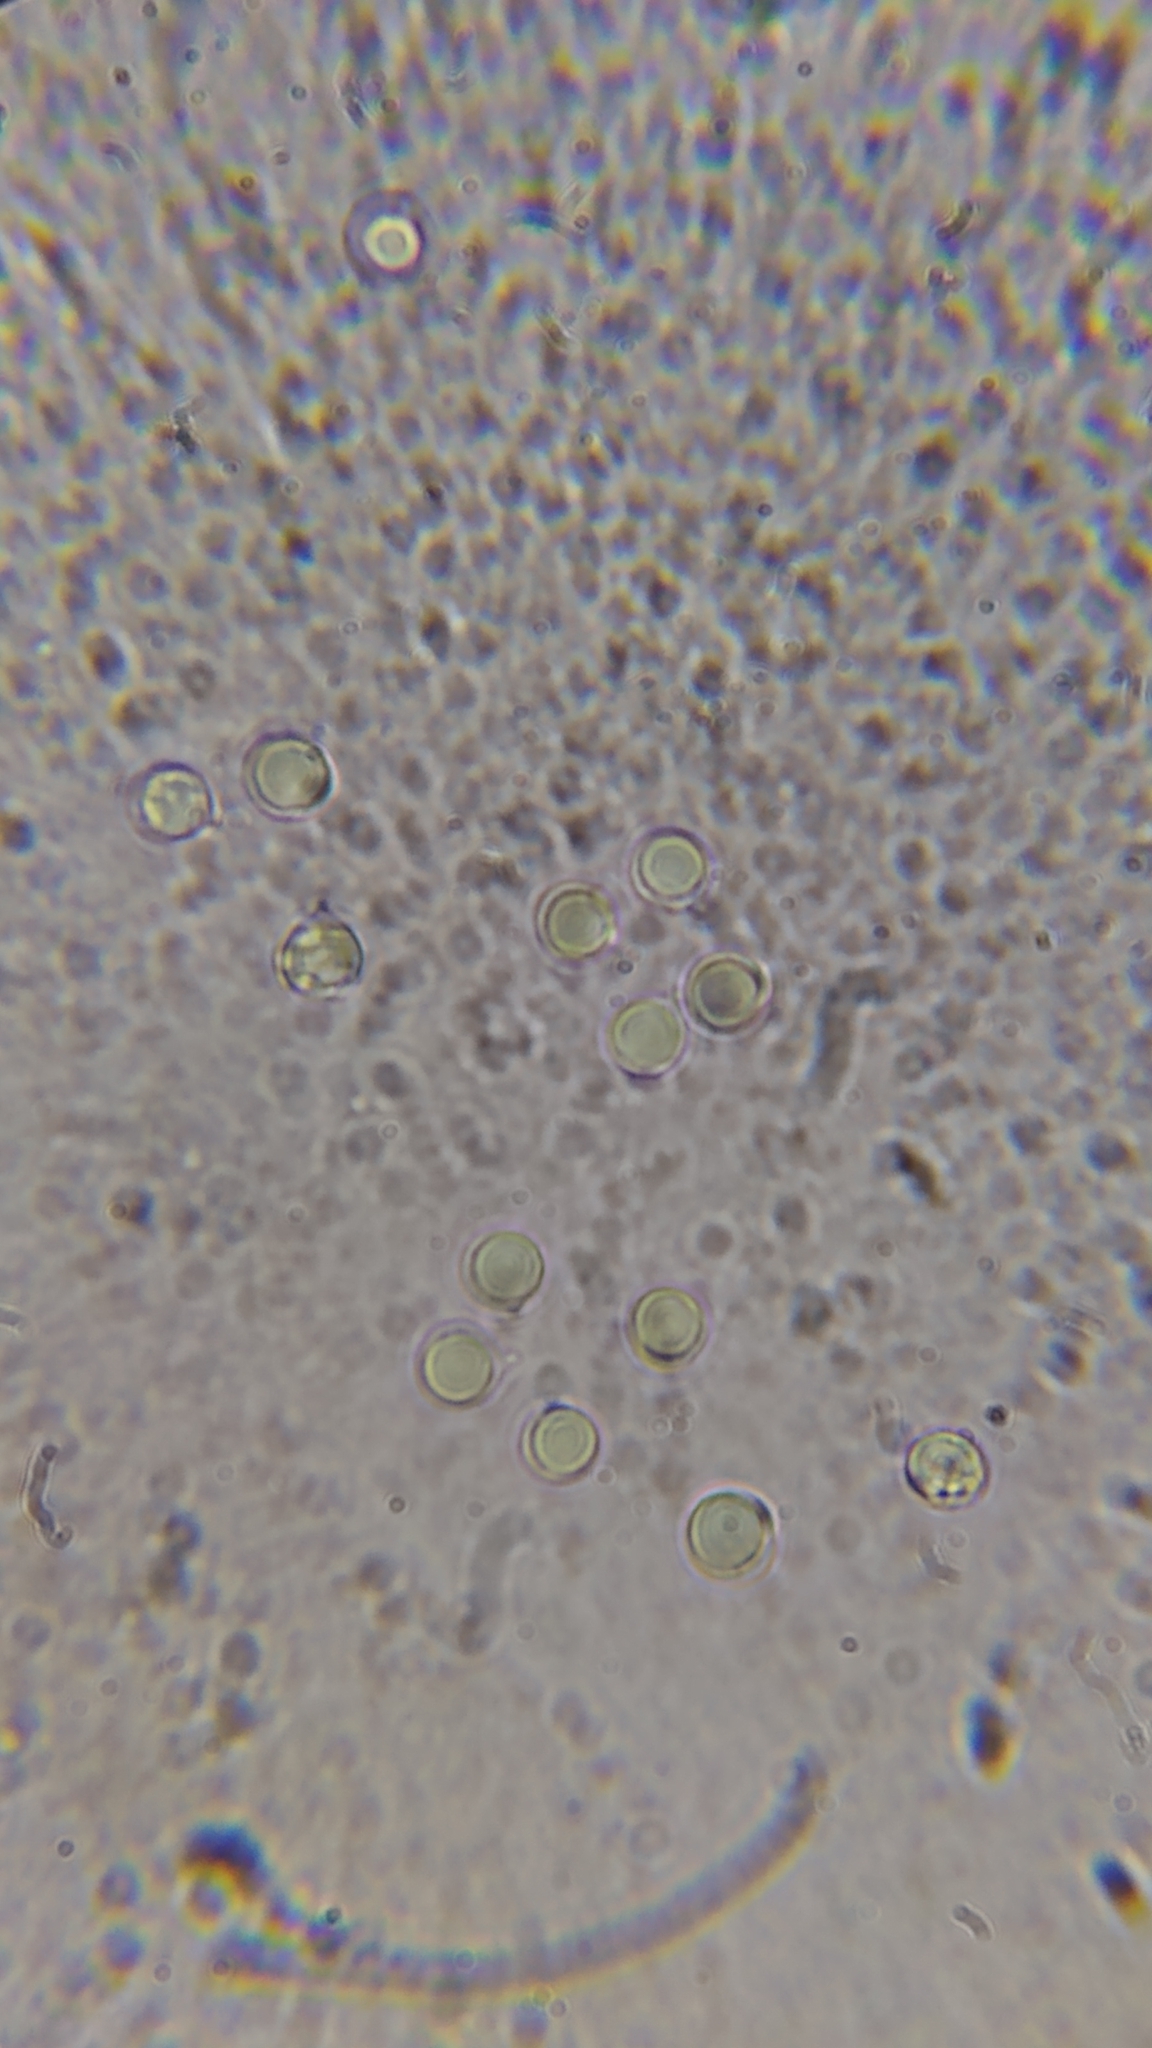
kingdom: Fungi
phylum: Basidiomycota
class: Agaricomycetes
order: Agaricales
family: Clavariaceae
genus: Clavulinopsis
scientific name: Clavulinopsis aurantiocinnabarina
